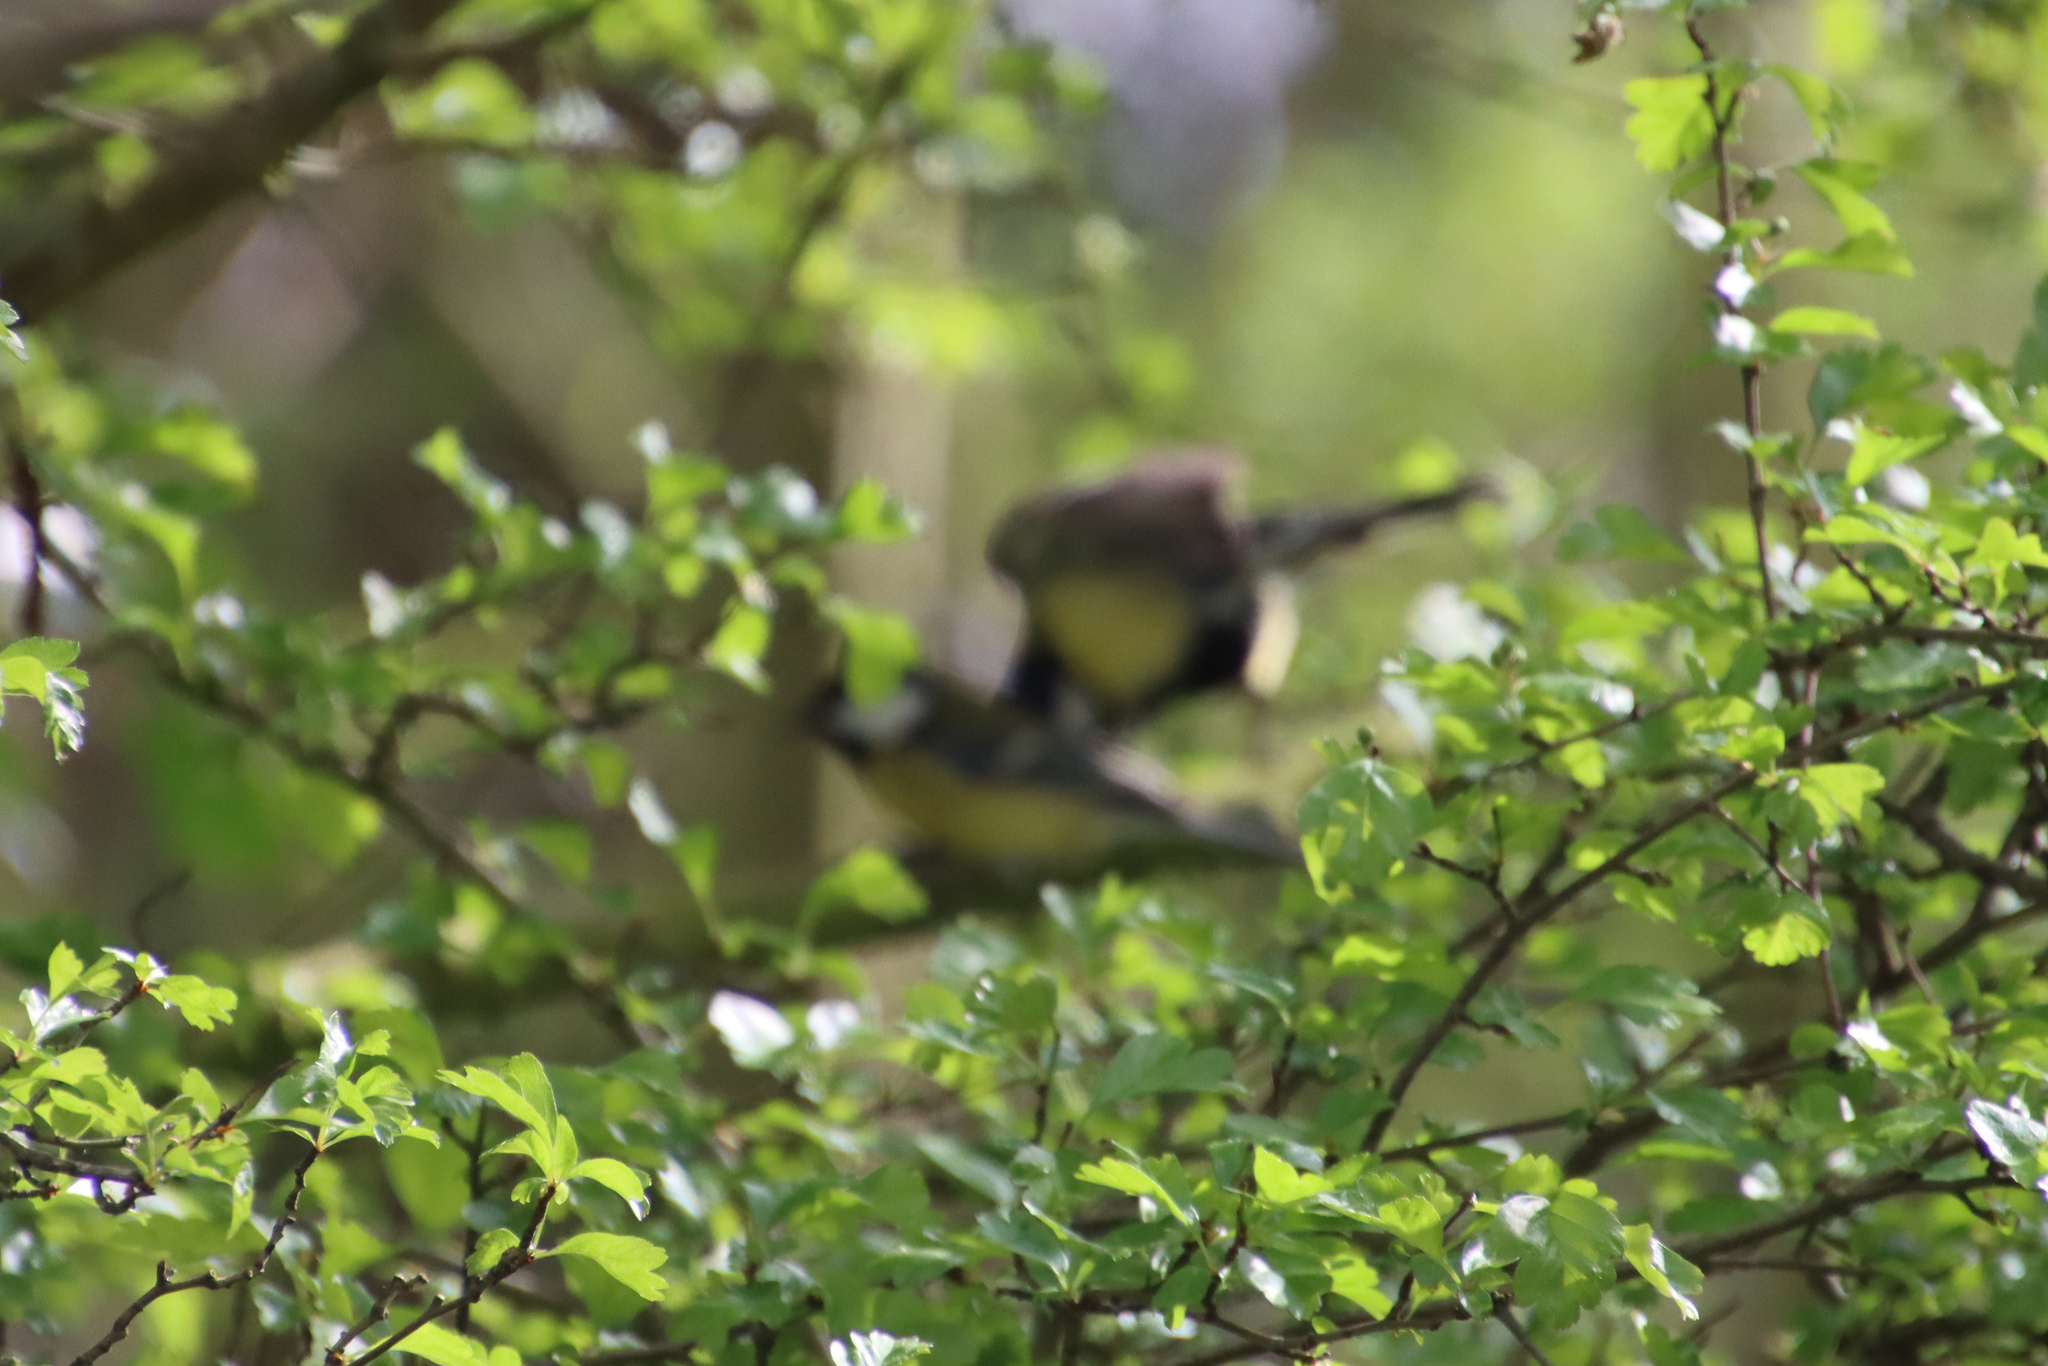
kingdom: Animalia
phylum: Chordata
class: Aves
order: Passeriformes
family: Paridae
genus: Parus
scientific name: Parus major
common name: Great tit
